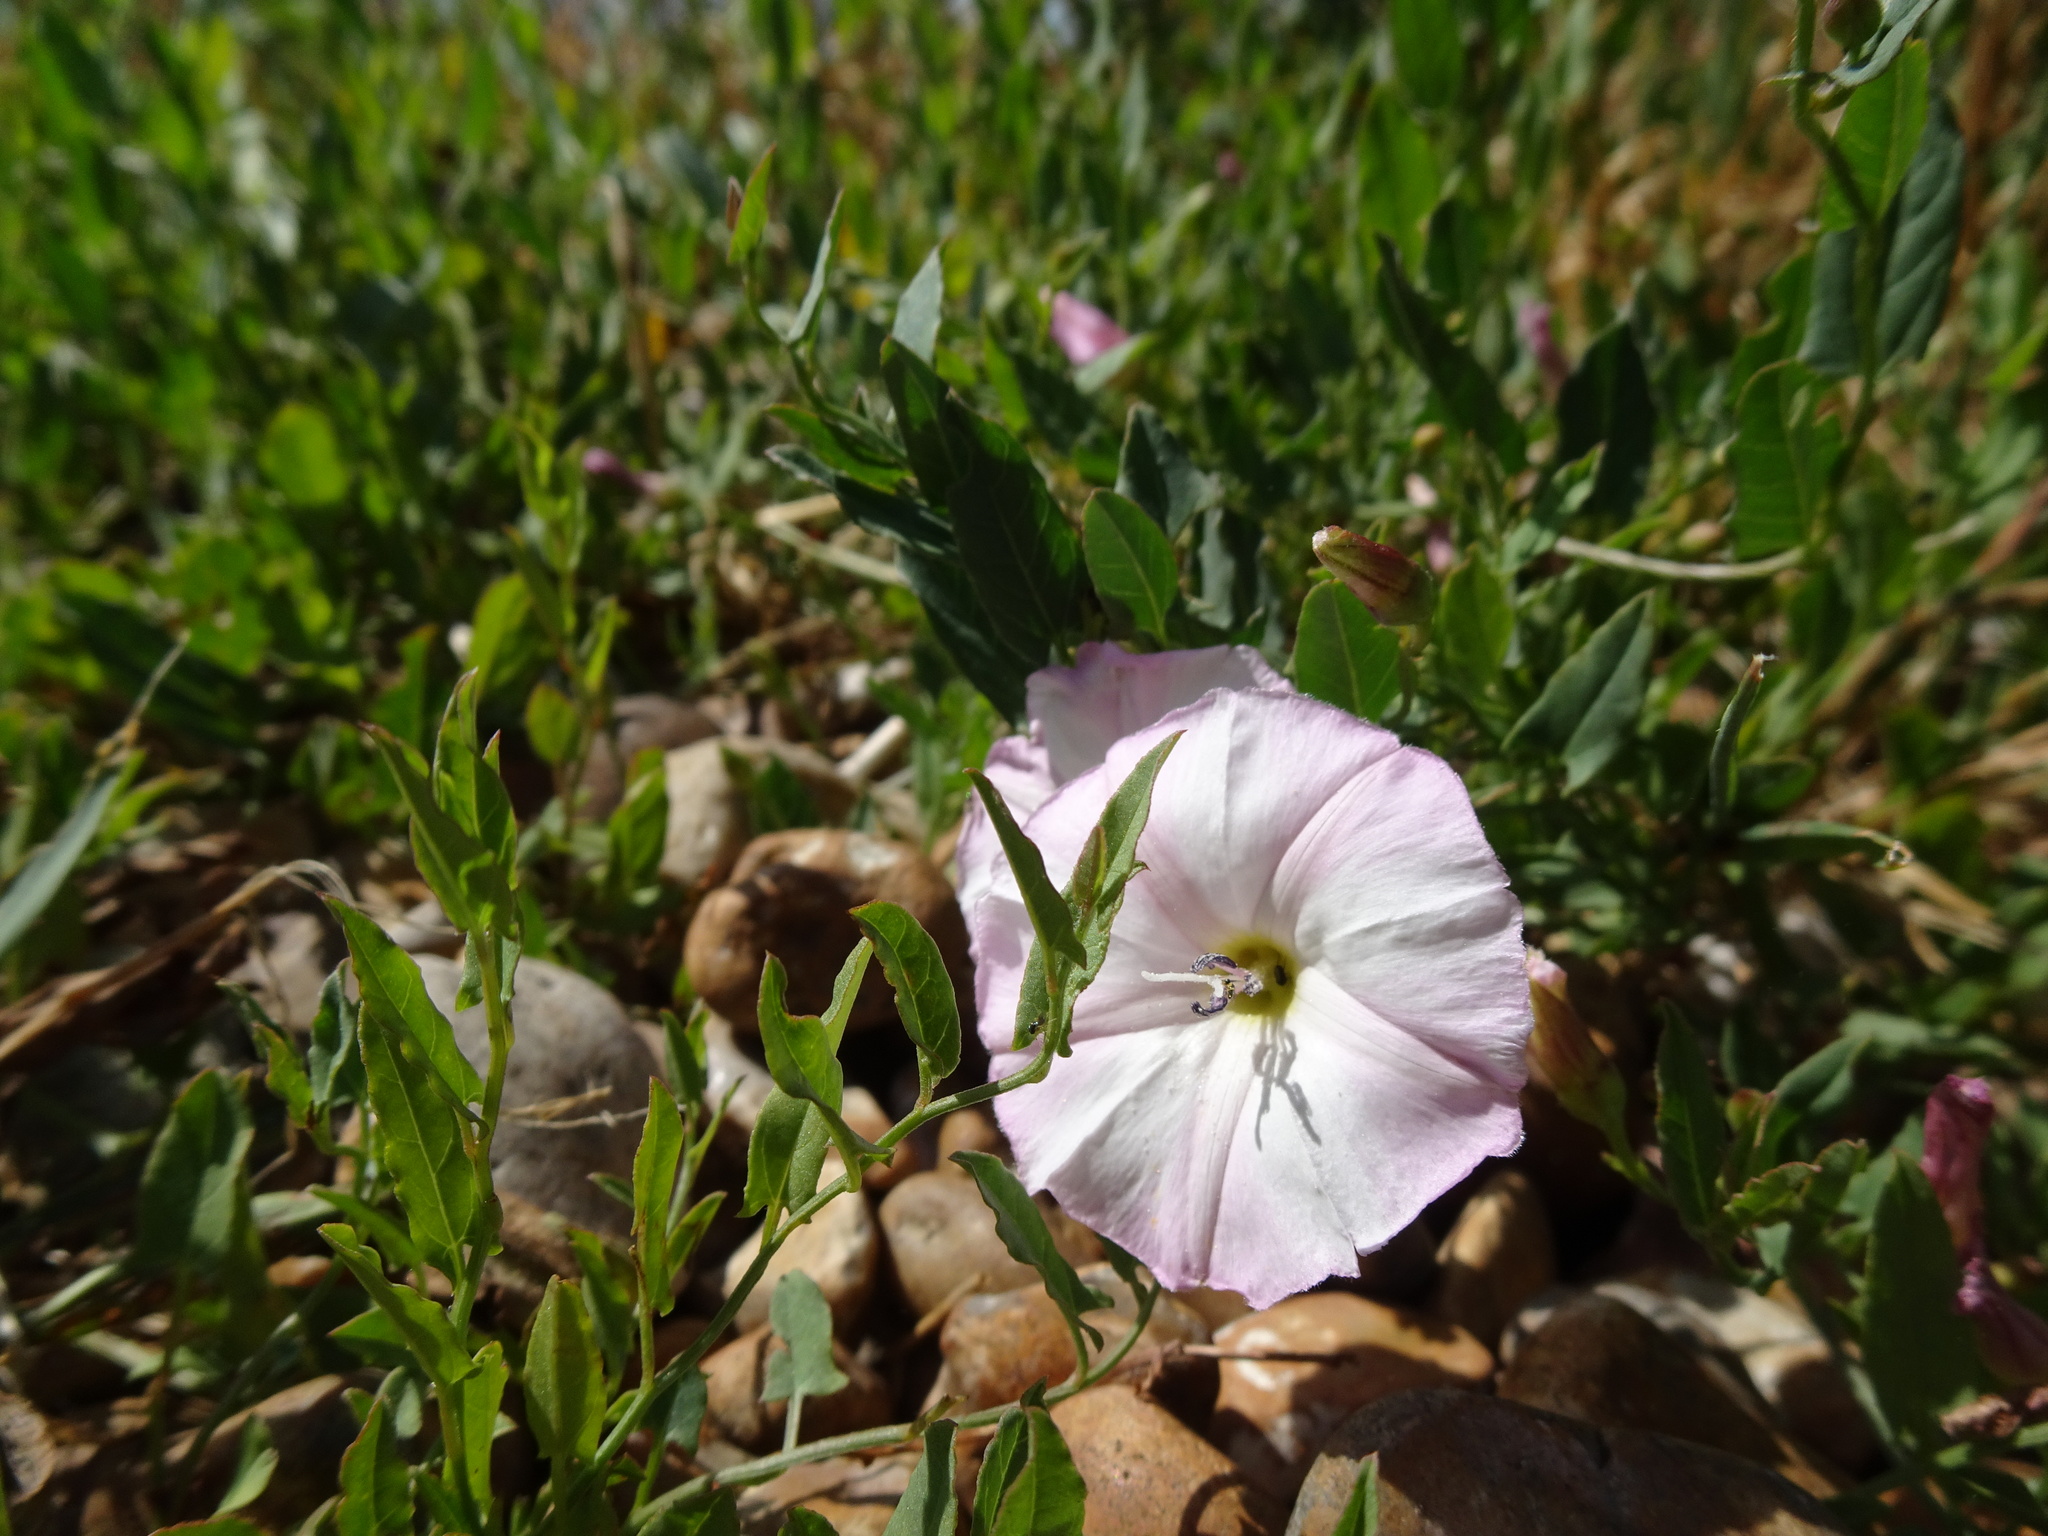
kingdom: Plantae
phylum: Tracheophyta
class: Magnoliopsida
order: Solanales
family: Convolvulaceae
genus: Convolvulus
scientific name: Convolvulus arvensis
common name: Field bindweed
